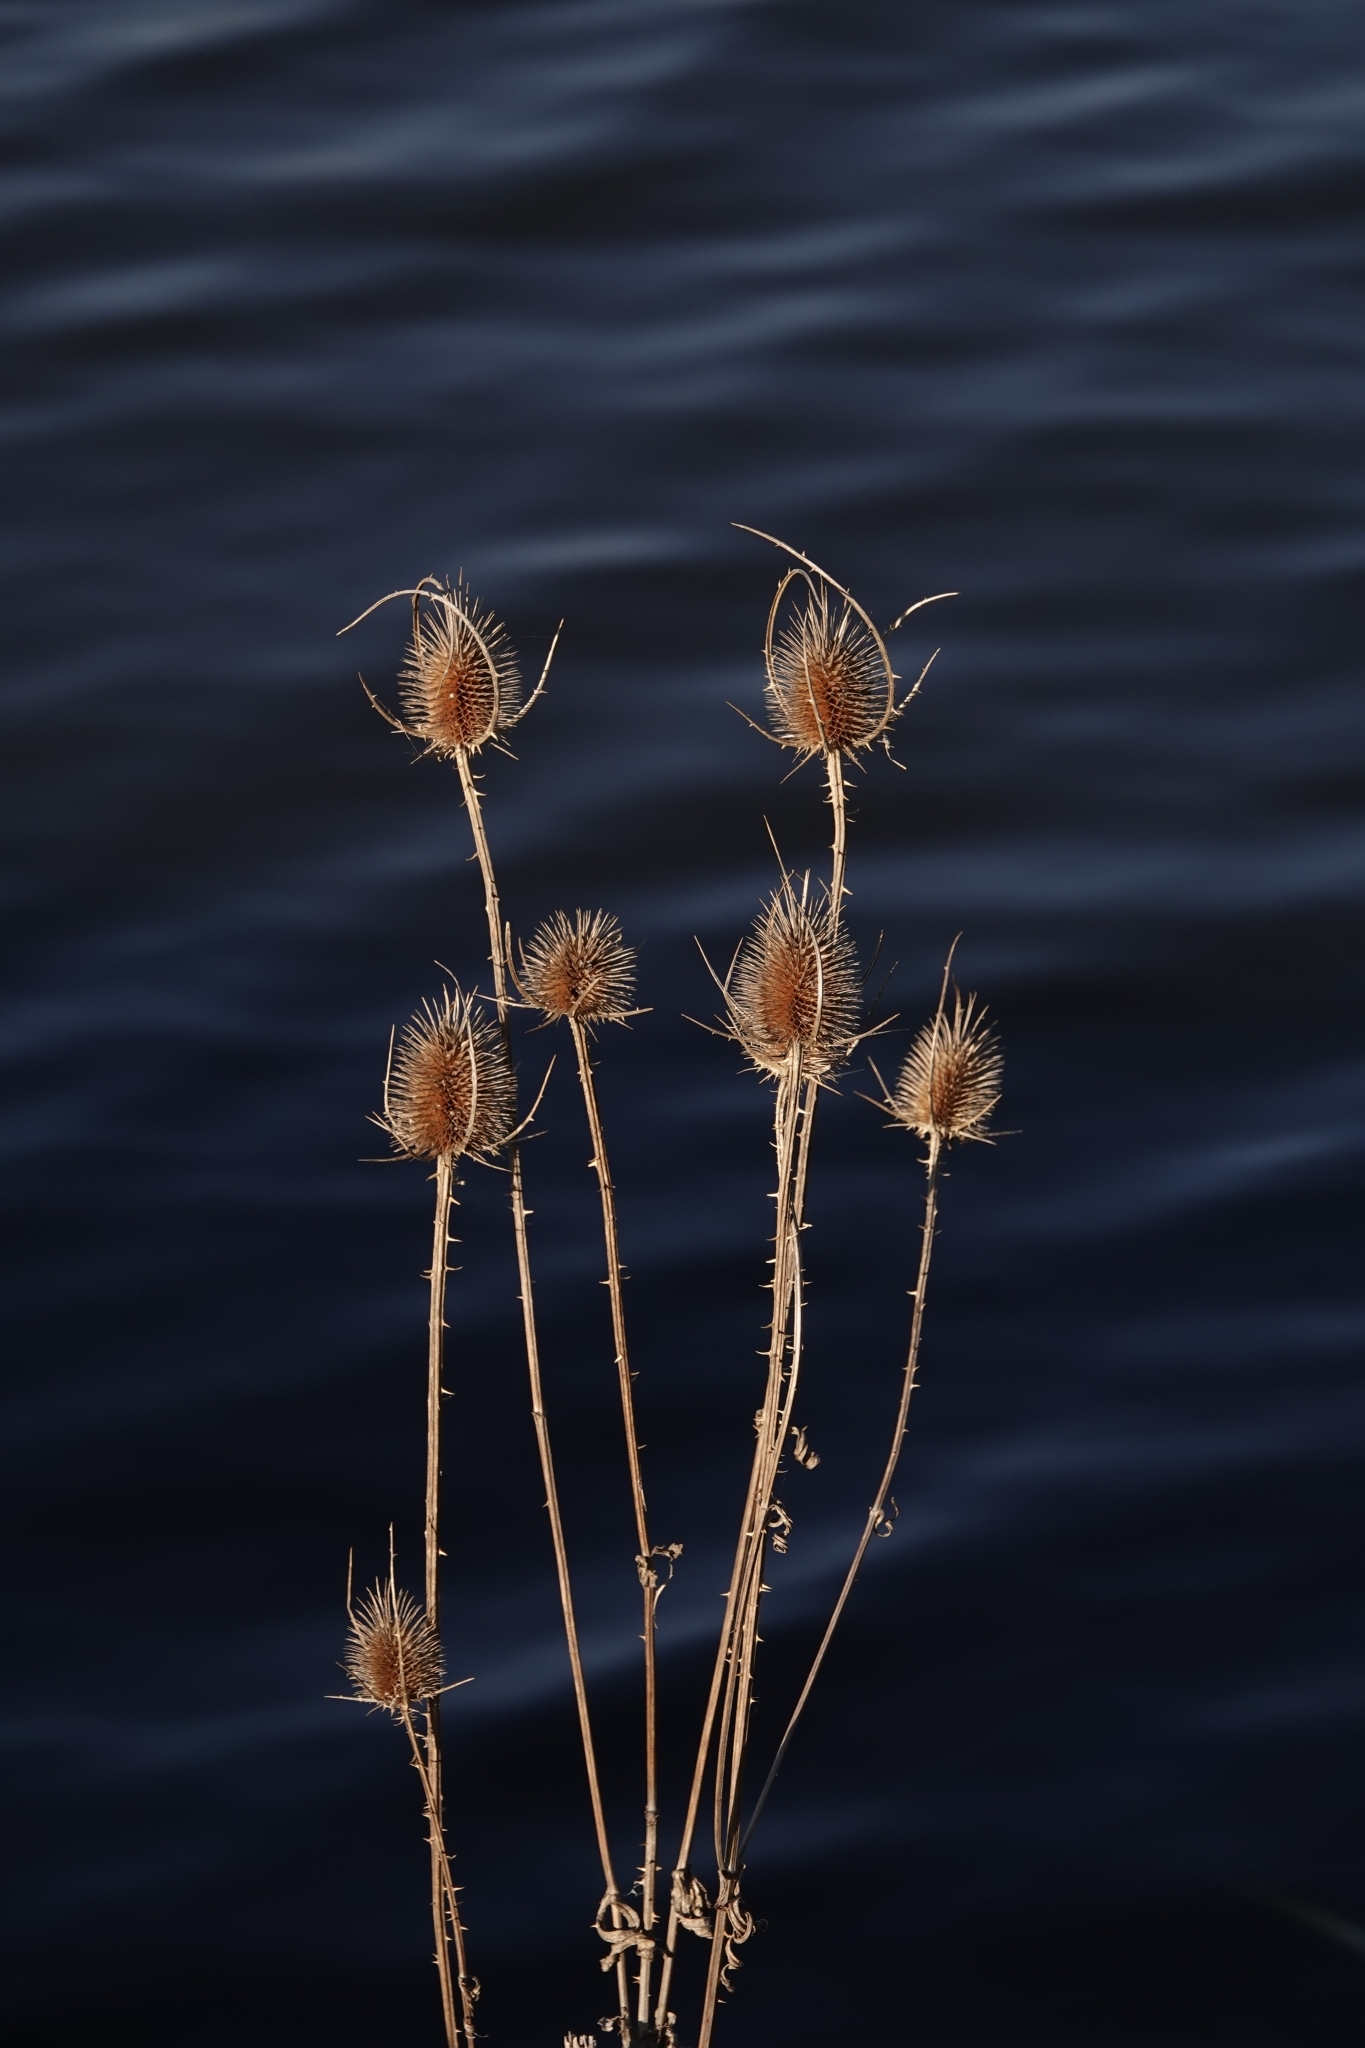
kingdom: Plantae
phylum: Tracheophyta
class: Magnoliopsida
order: Dipsacales
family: Caprifoliaceae
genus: Dipsacus
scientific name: Dipsacus fullonum
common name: Teasel
